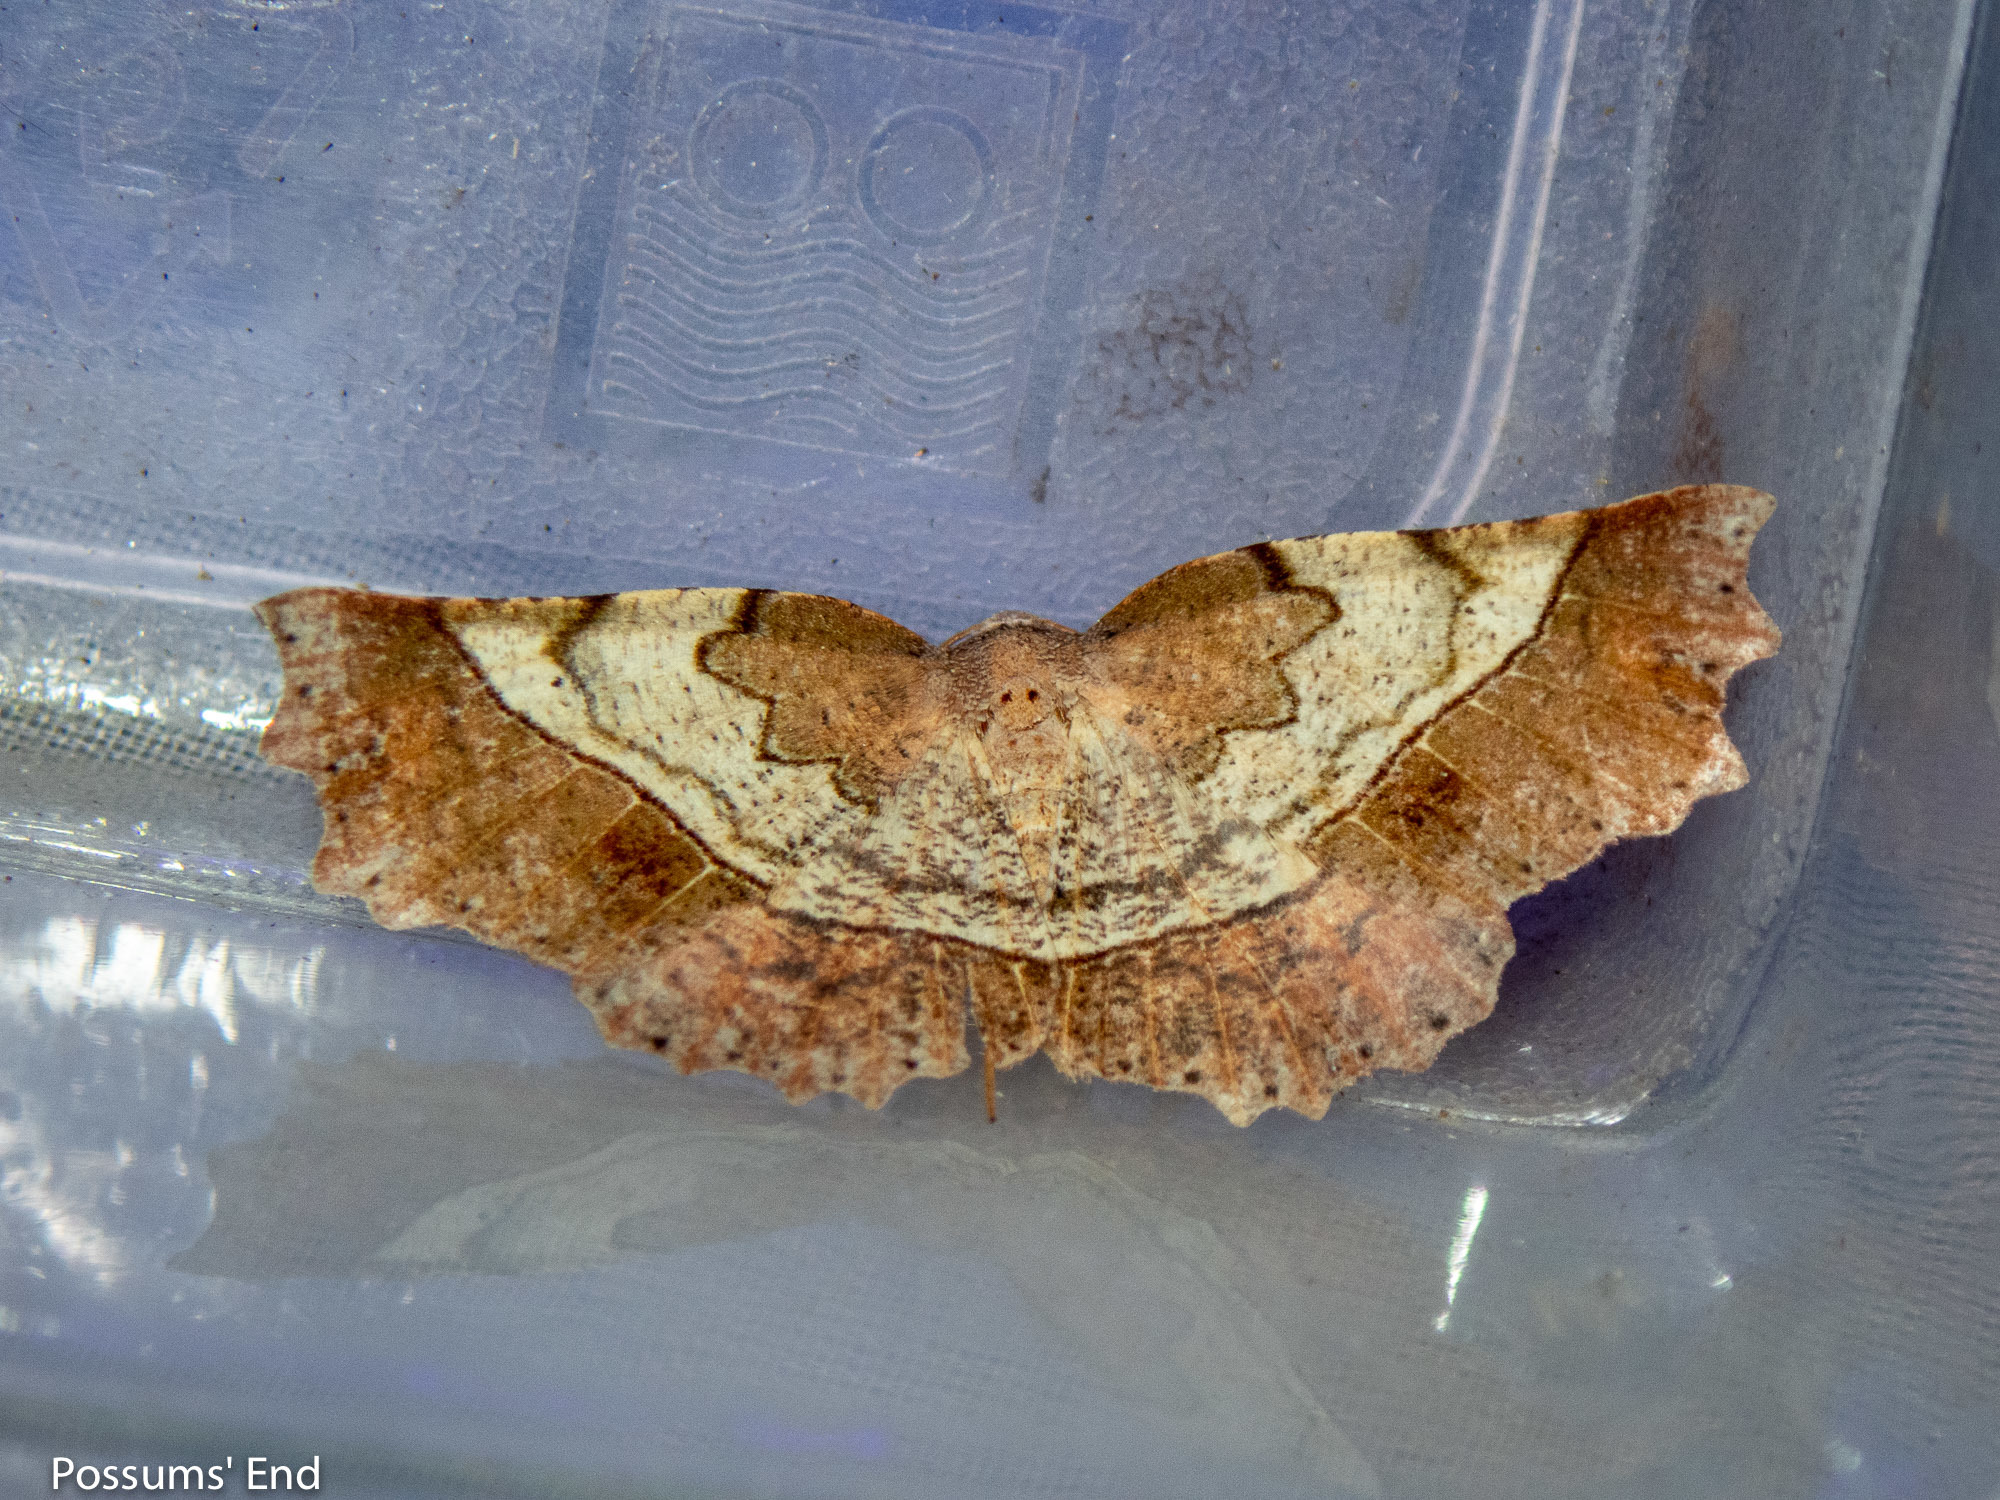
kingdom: Animalia
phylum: Arthropoda
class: Insecta
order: Lepidoptera
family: Geometridae
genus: Ischalis
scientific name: Ischalis gallaria
